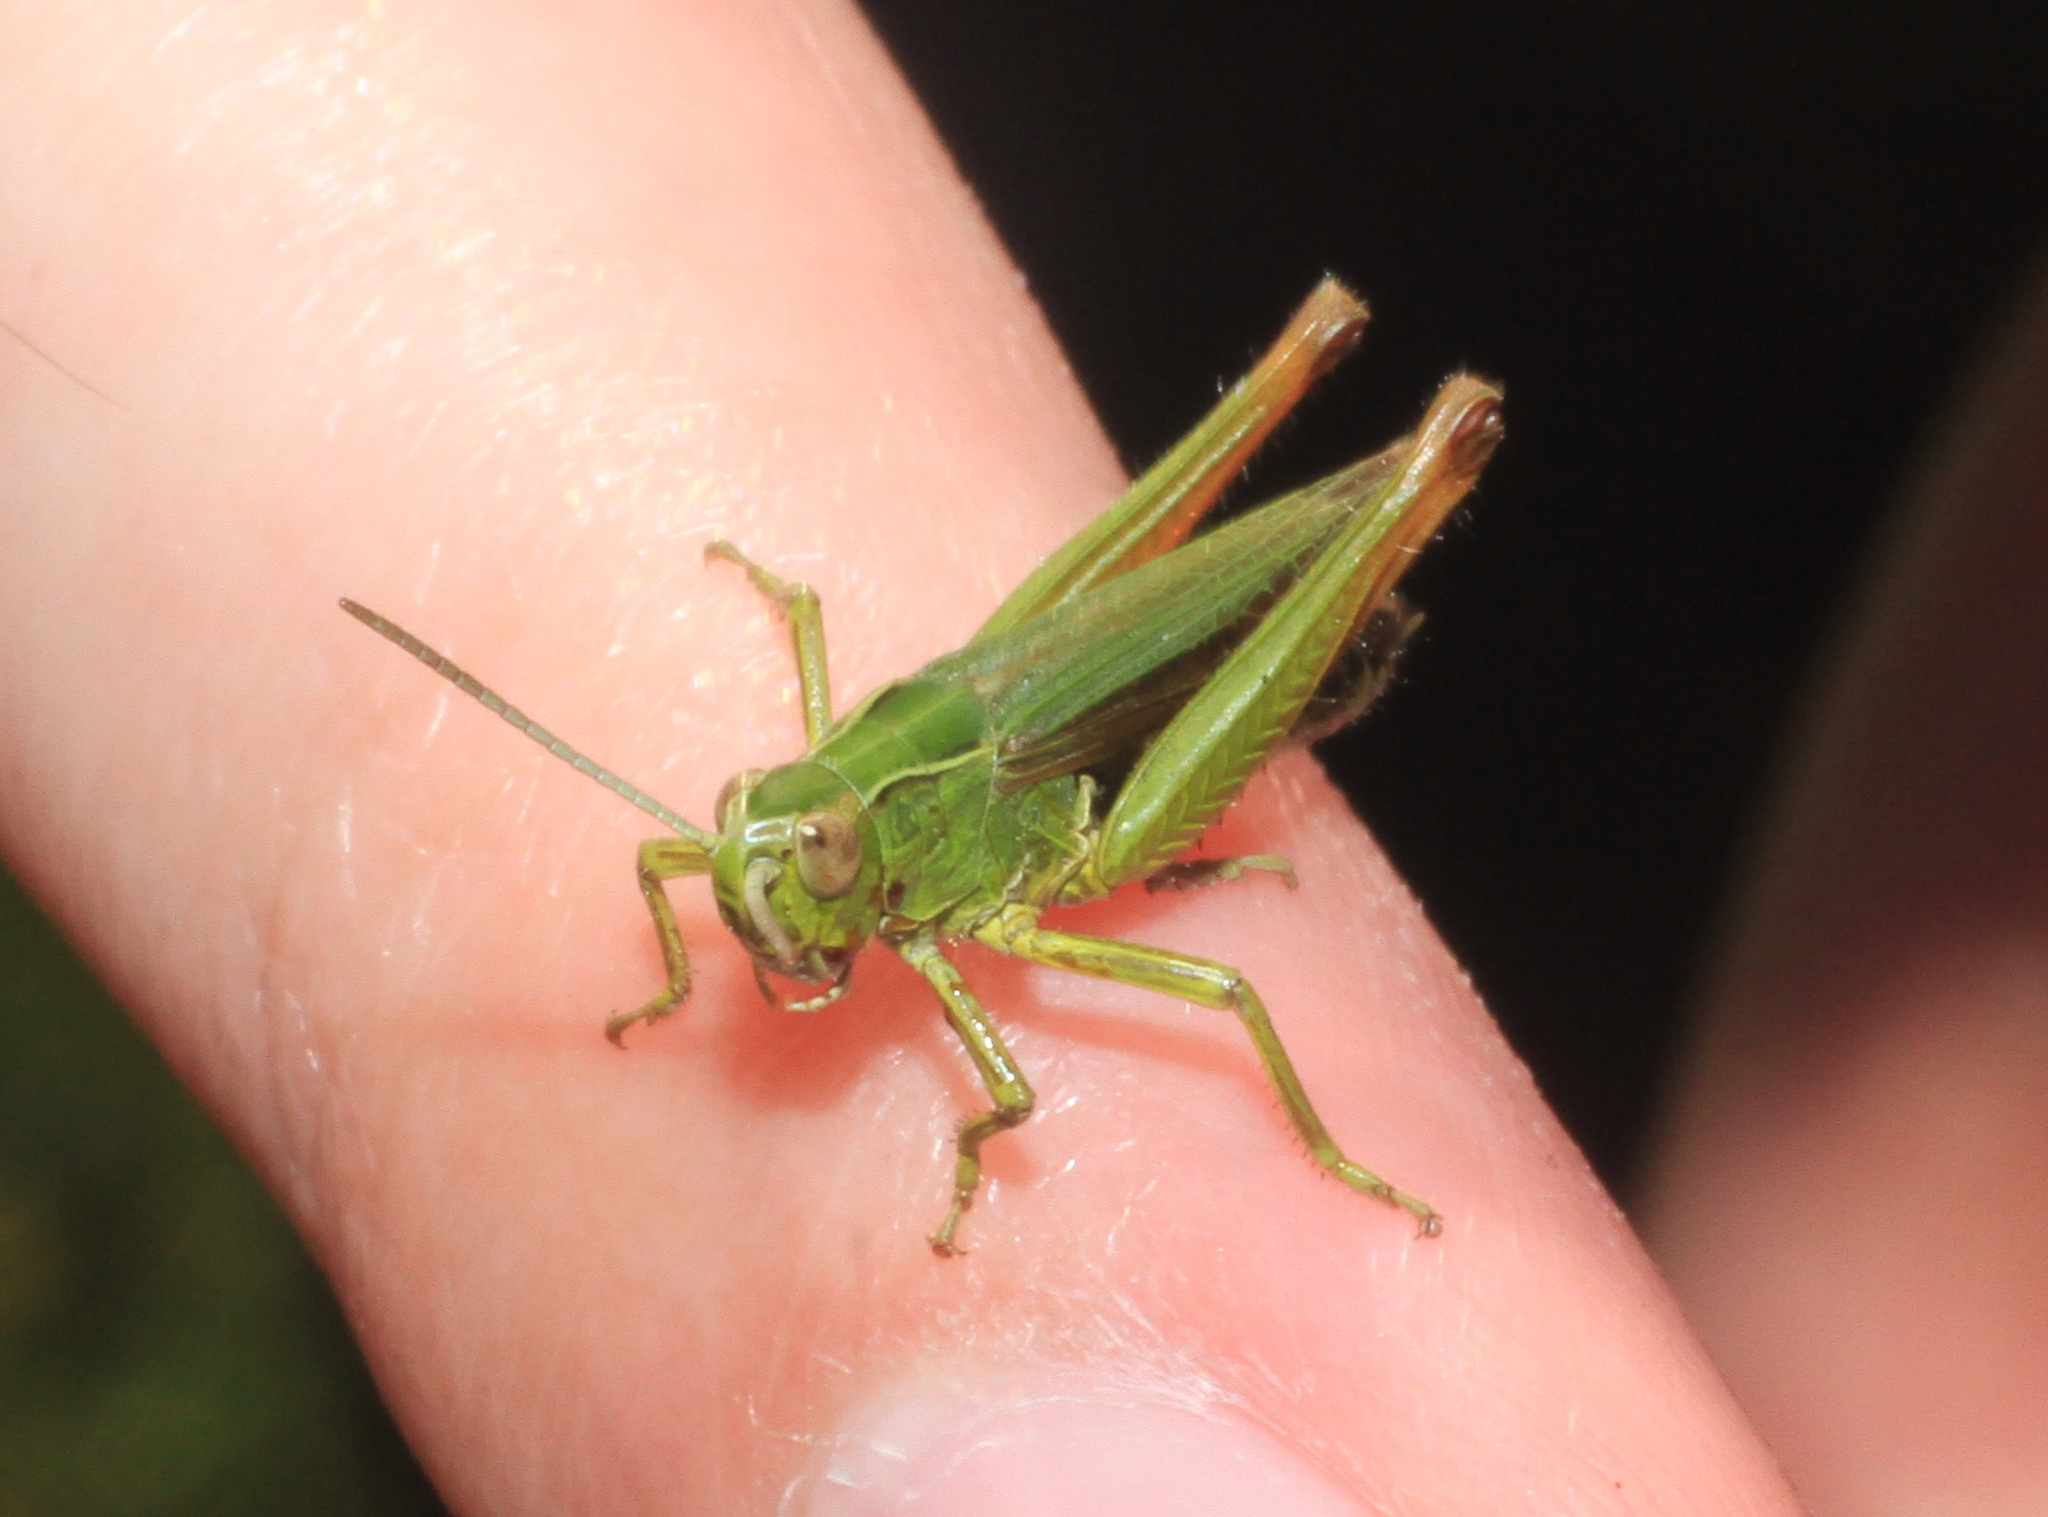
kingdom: Animalia
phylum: Arthropoda
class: Insecta
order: Orthoptera
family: Acrididae
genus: Omocestus
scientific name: Omocestus viridulus
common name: Common green grasshopper
